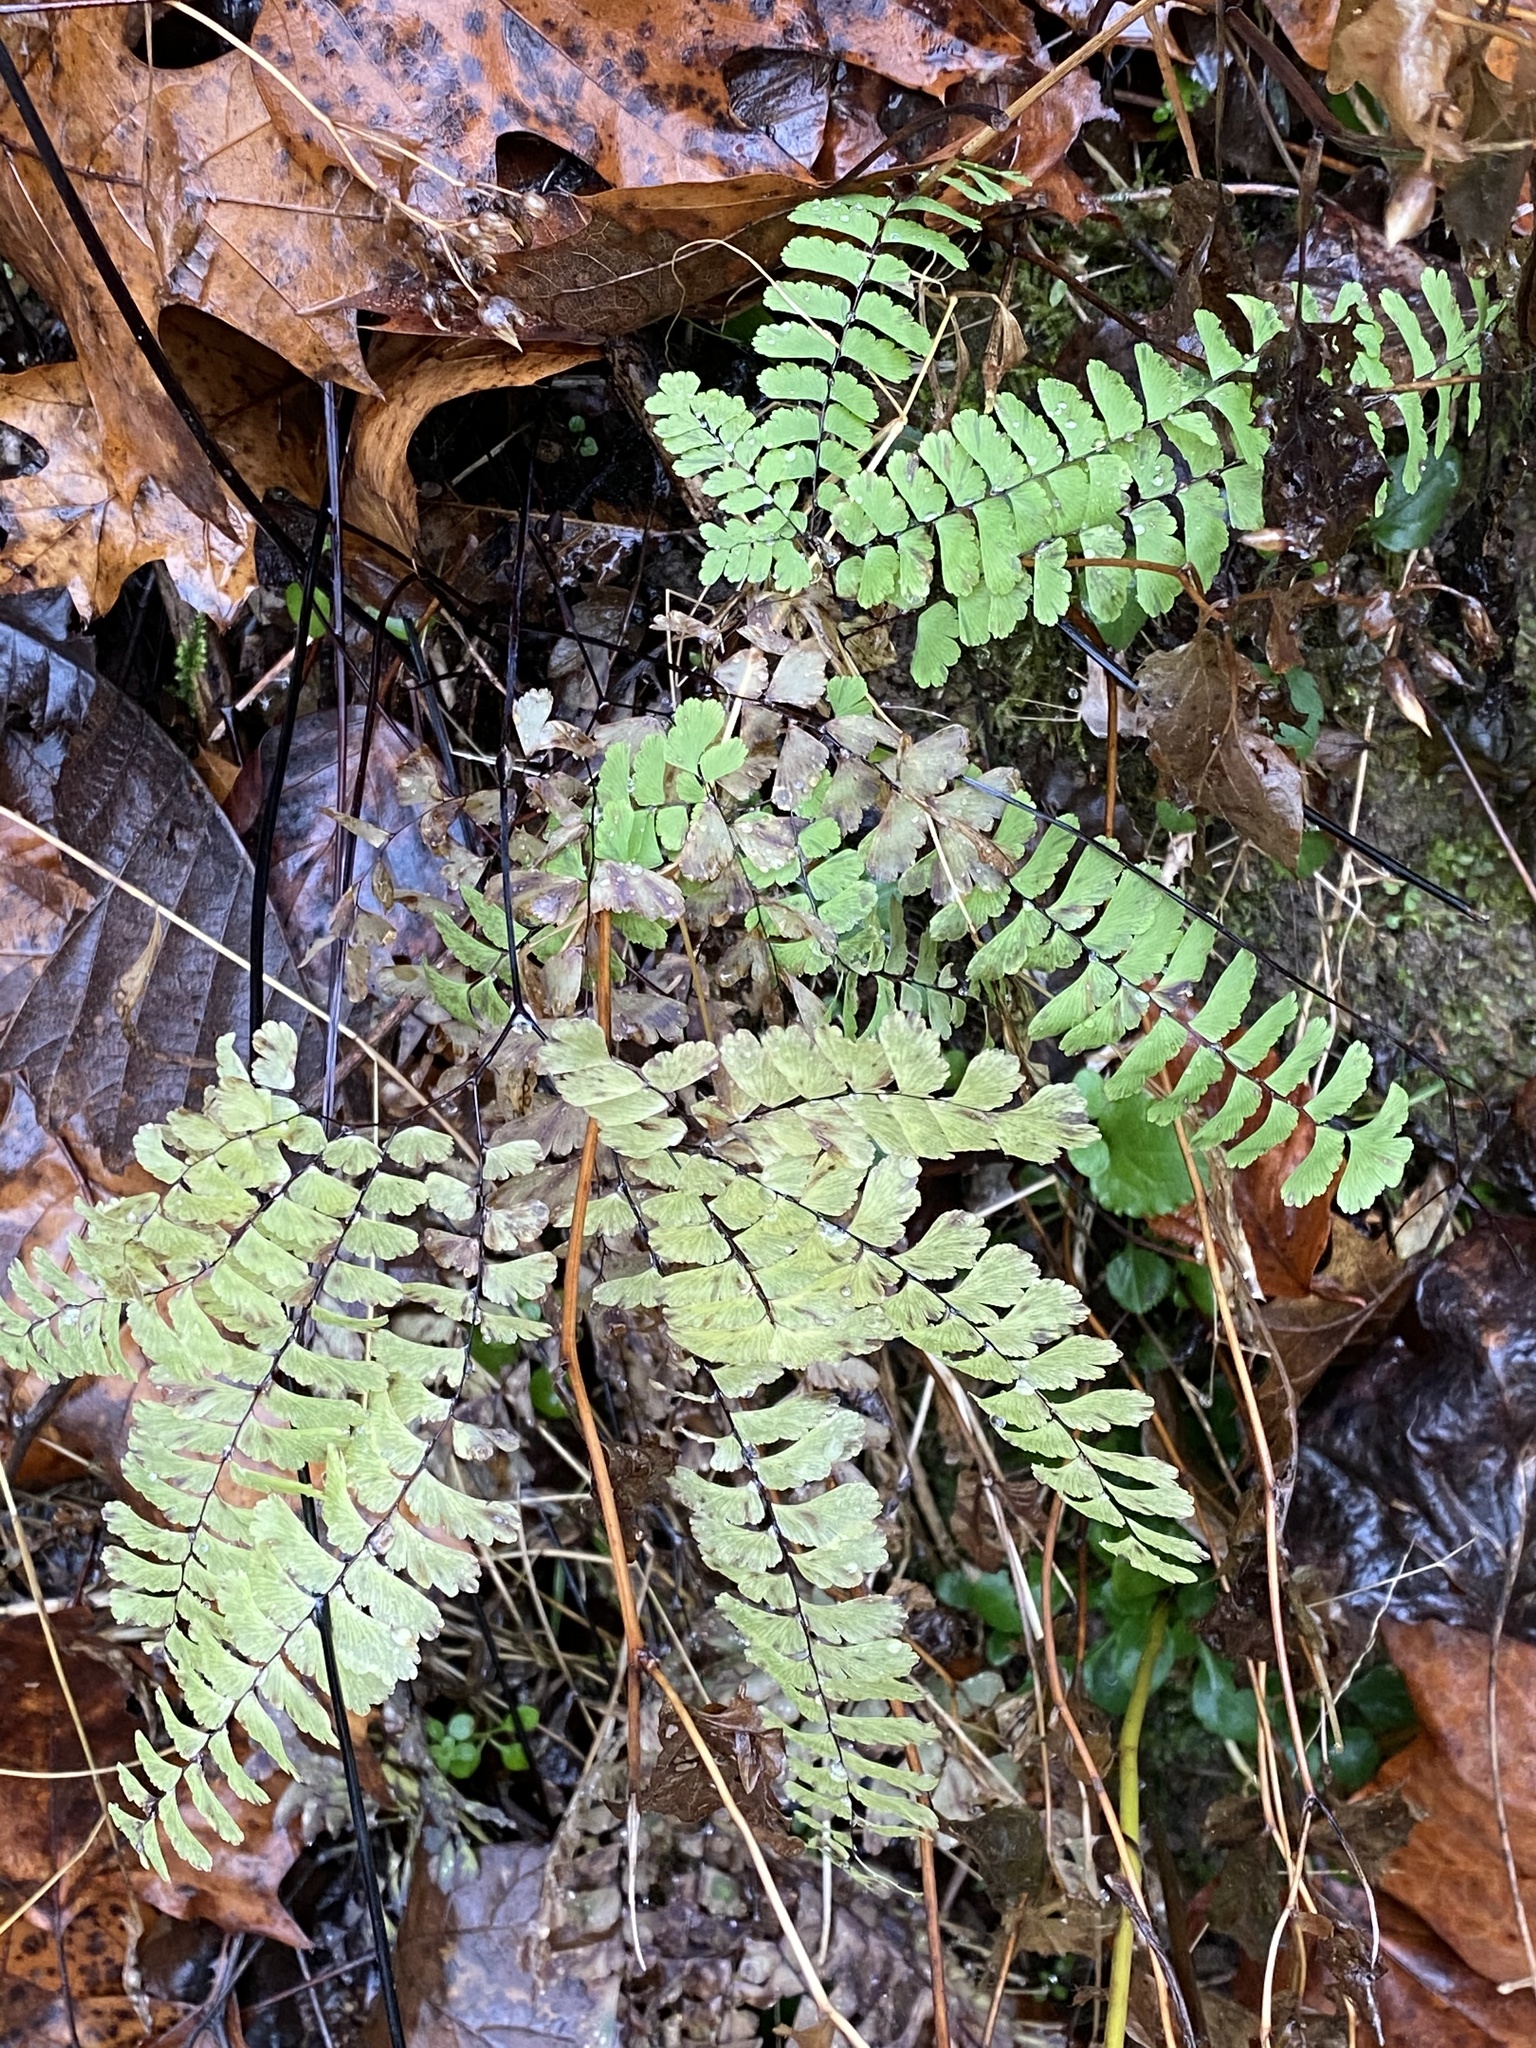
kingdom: Plantae
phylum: Tracheophyta
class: Polypodiopsida
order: Polypodiales
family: Pteridaceae
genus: Adiantum
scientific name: Adiantum pedatum
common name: Five-finger fern
